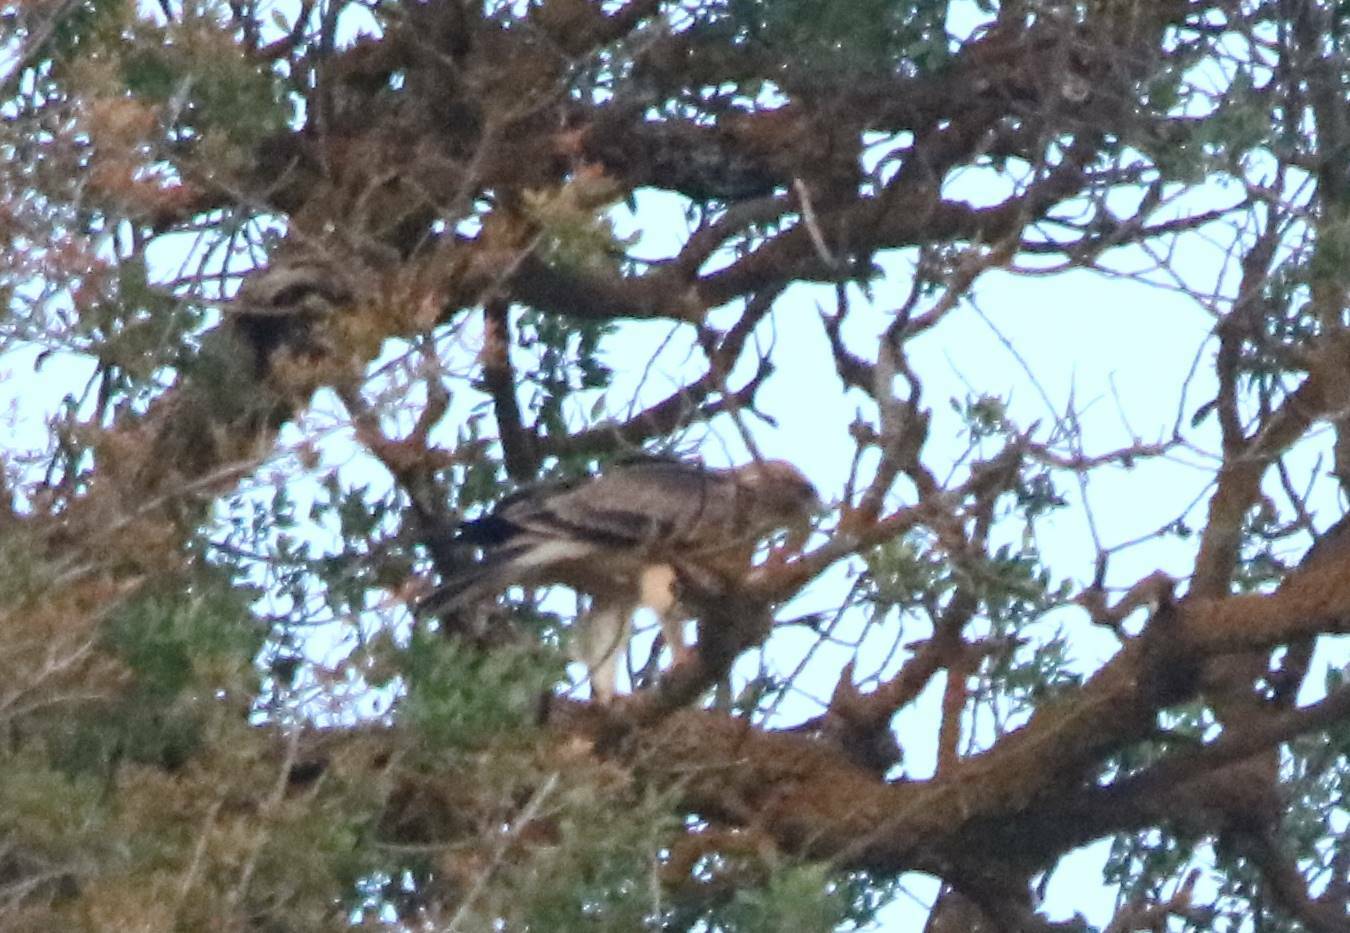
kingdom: Animalia
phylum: Chordata
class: Aves
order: Accipitriformes
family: Accipitridae
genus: Hieraaetus
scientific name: Hieraaetus pennatus
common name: Booted eagle
